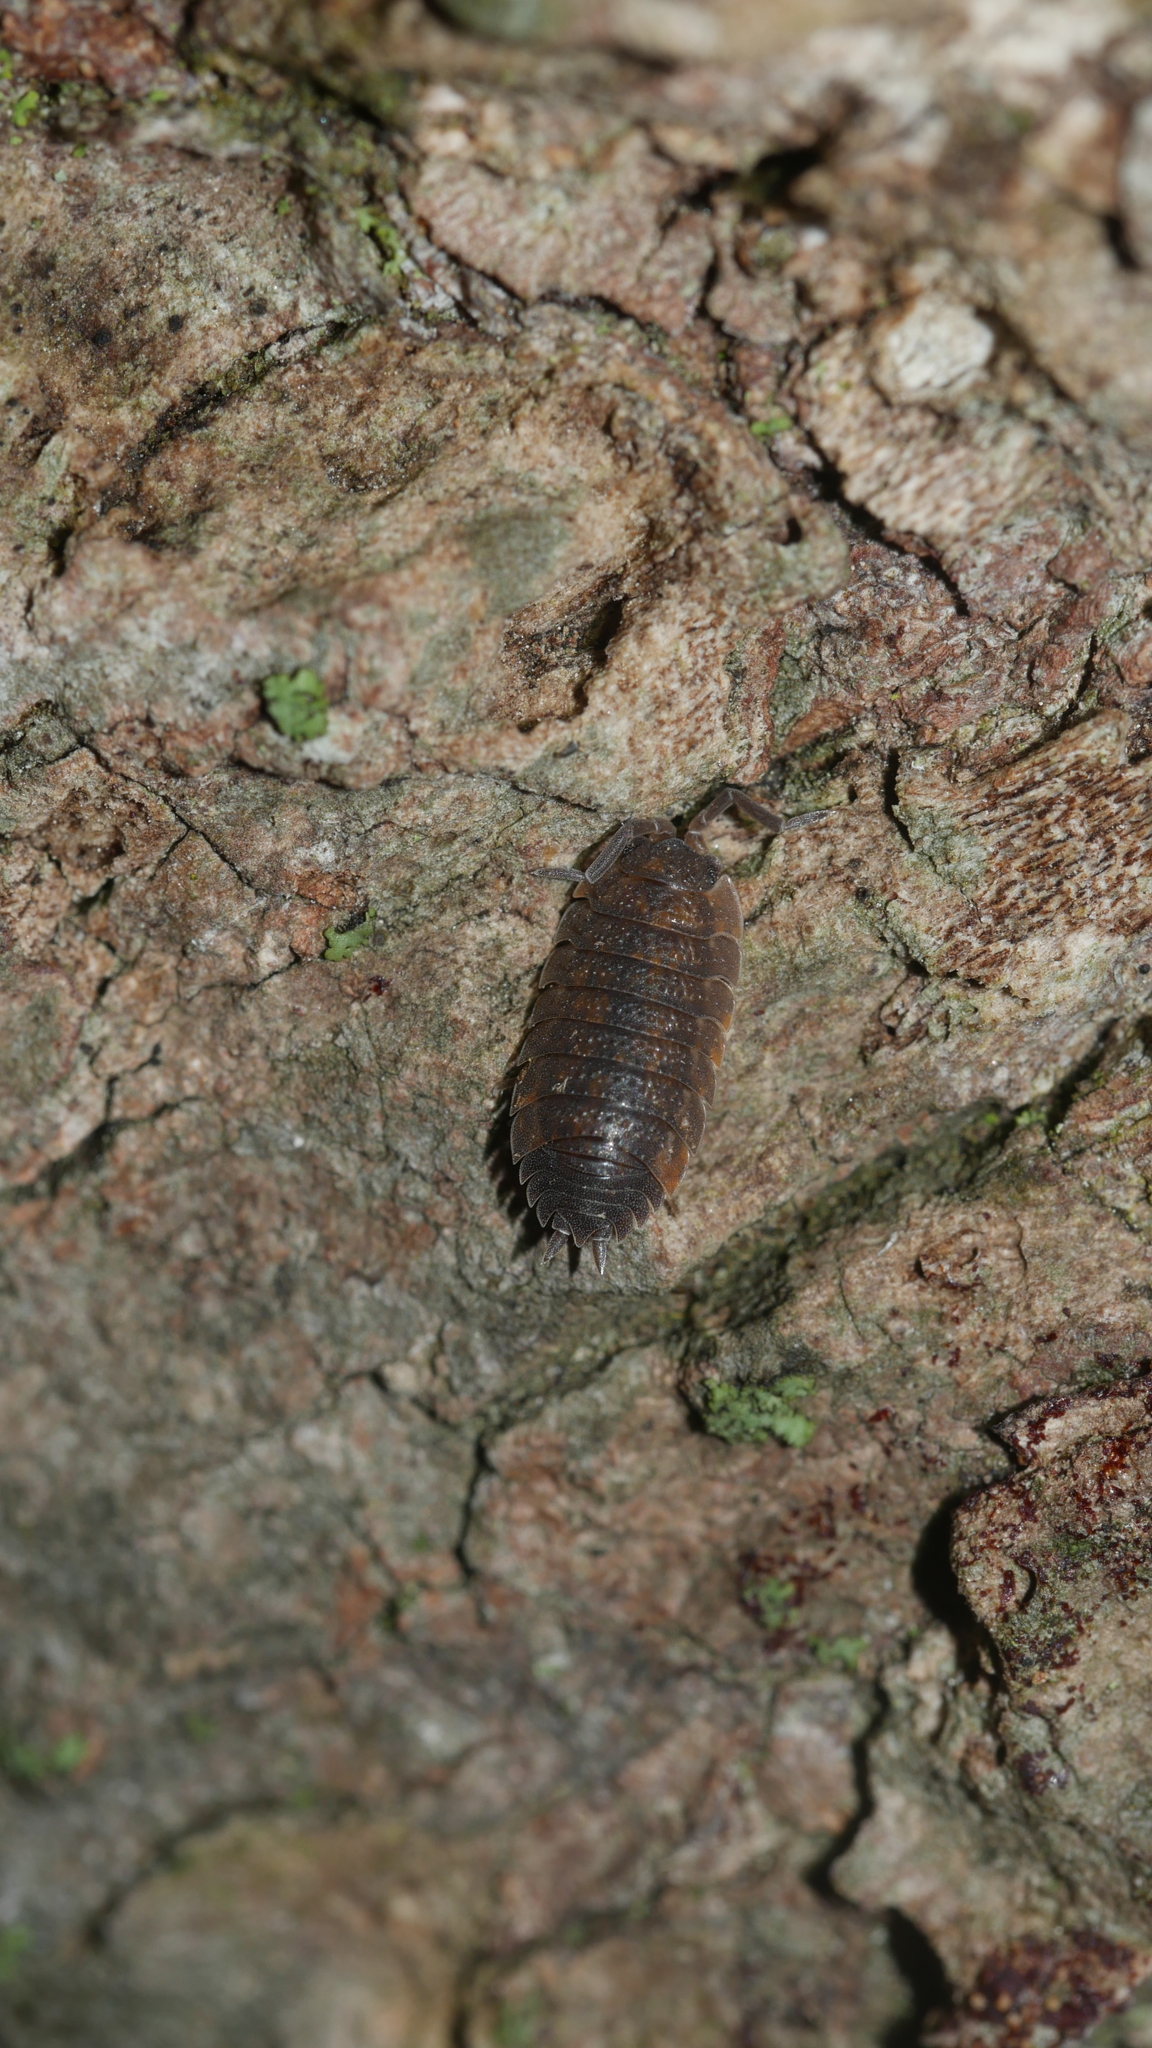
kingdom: Animalia
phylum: Arthropoda
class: Malacostraca
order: Isopoda
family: Porcellionidae
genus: Porcellio
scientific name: Porcellio scaber
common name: Common rough woodlouse
